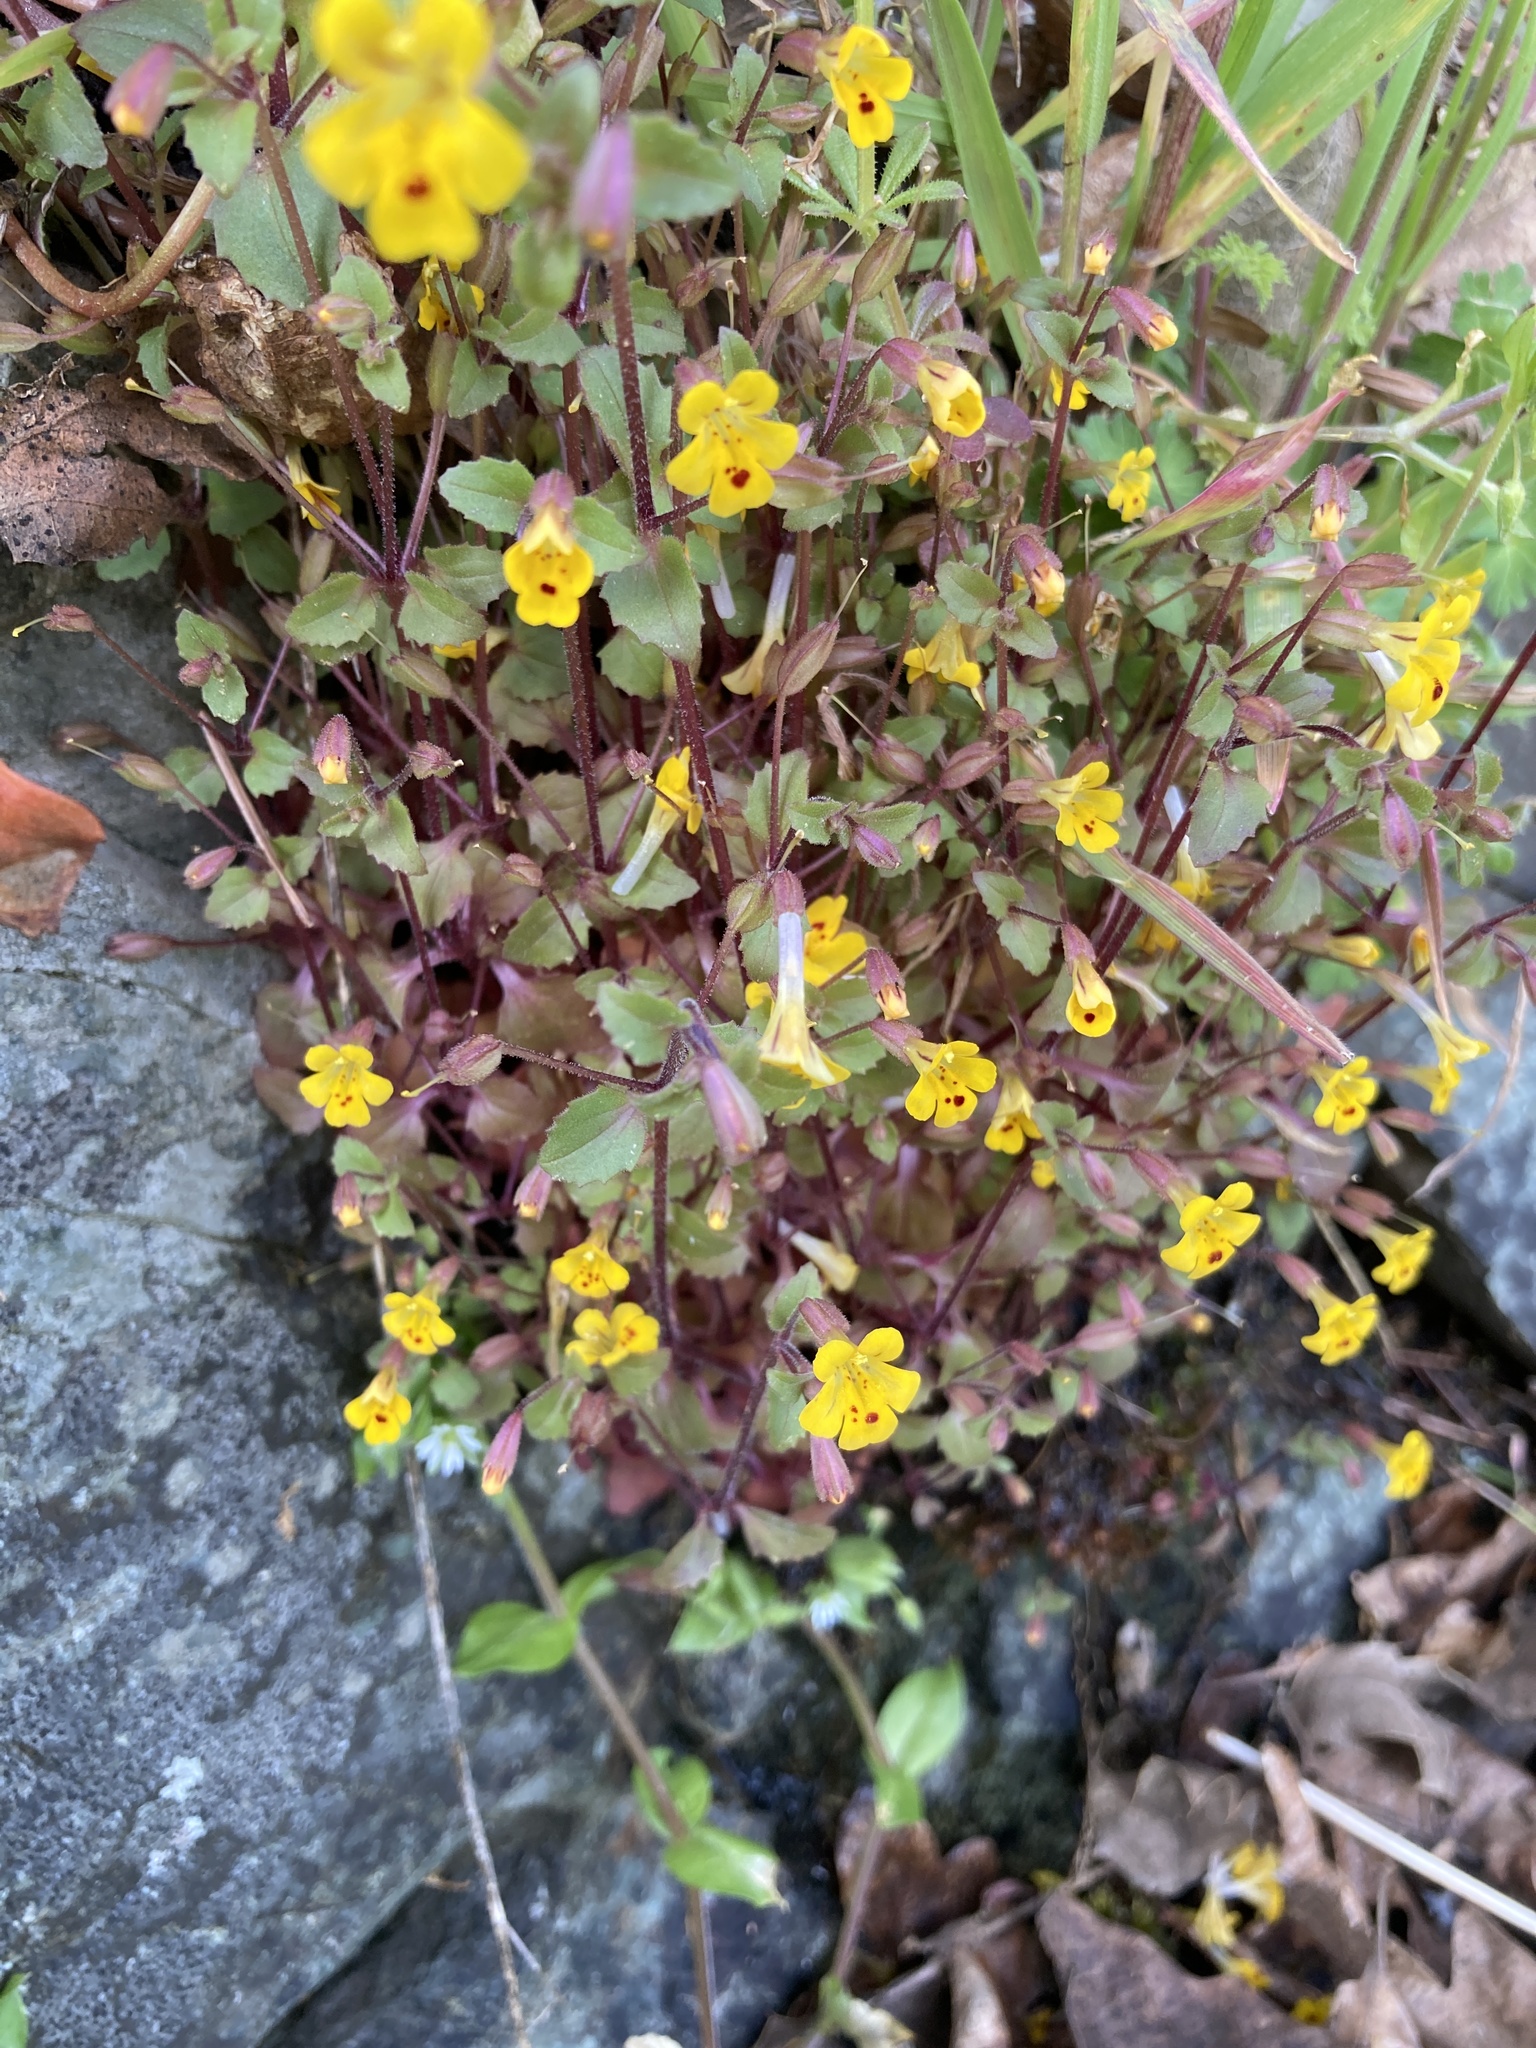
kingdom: Plantae
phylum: Tracheophyta
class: Magnoliopsida
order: Lamiales
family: Phrymaceae
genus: Erythranthe
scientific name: Erythranthe alsinoides
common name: Chickweed monkeyflower
